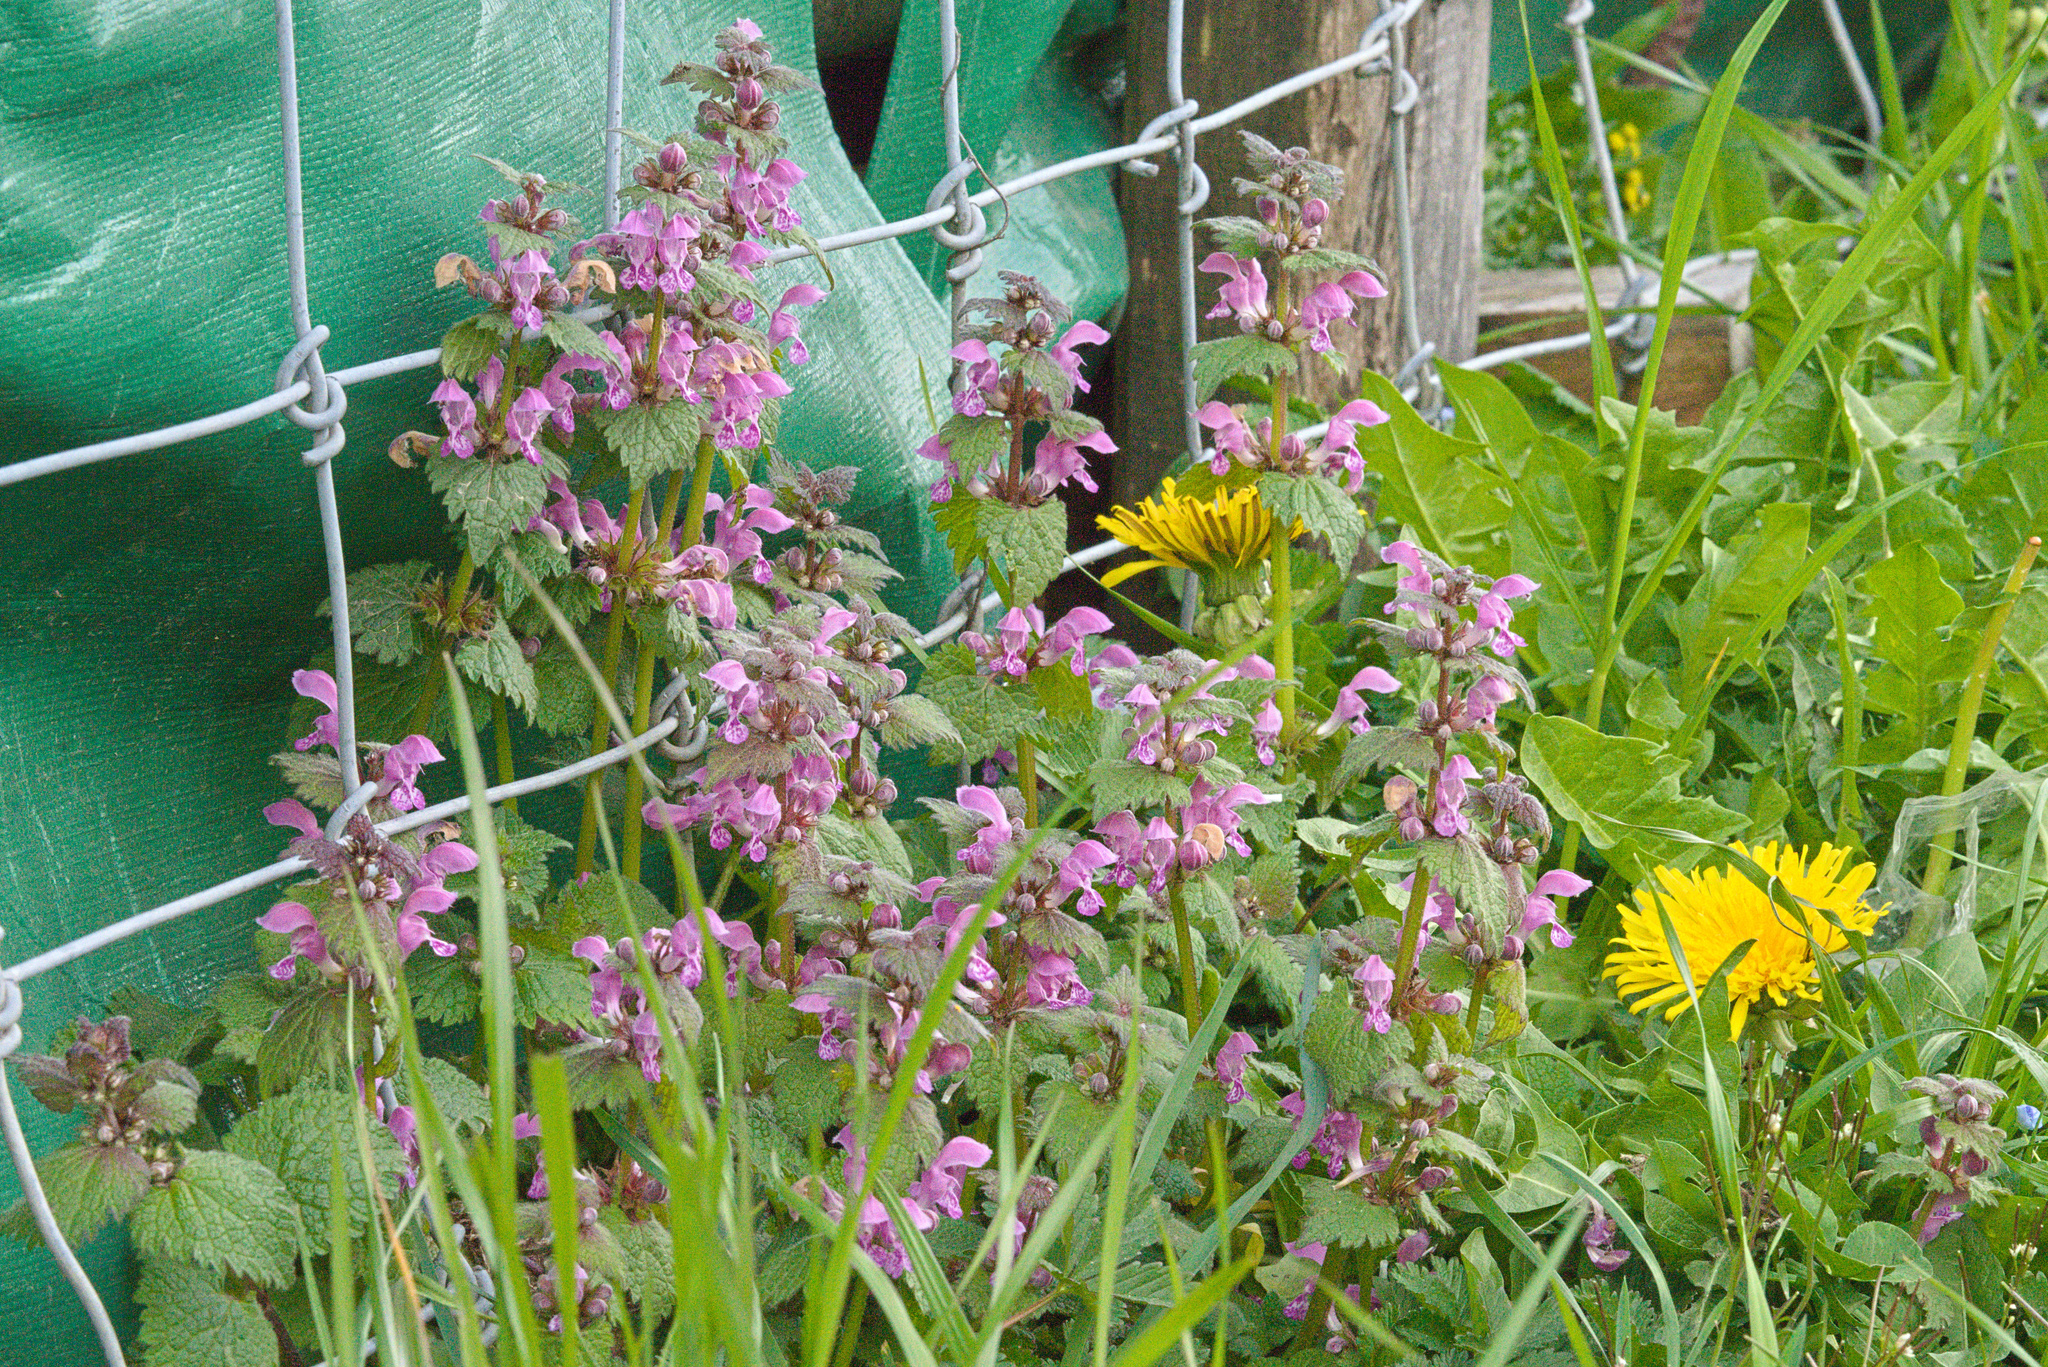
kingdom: Plantae
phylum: Tracheophyta
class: Magnoliopsida
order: Lamiales
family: Lamiaceae
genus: Lamium
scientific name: Lamium maculatum
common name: Spotted dead-nettle
